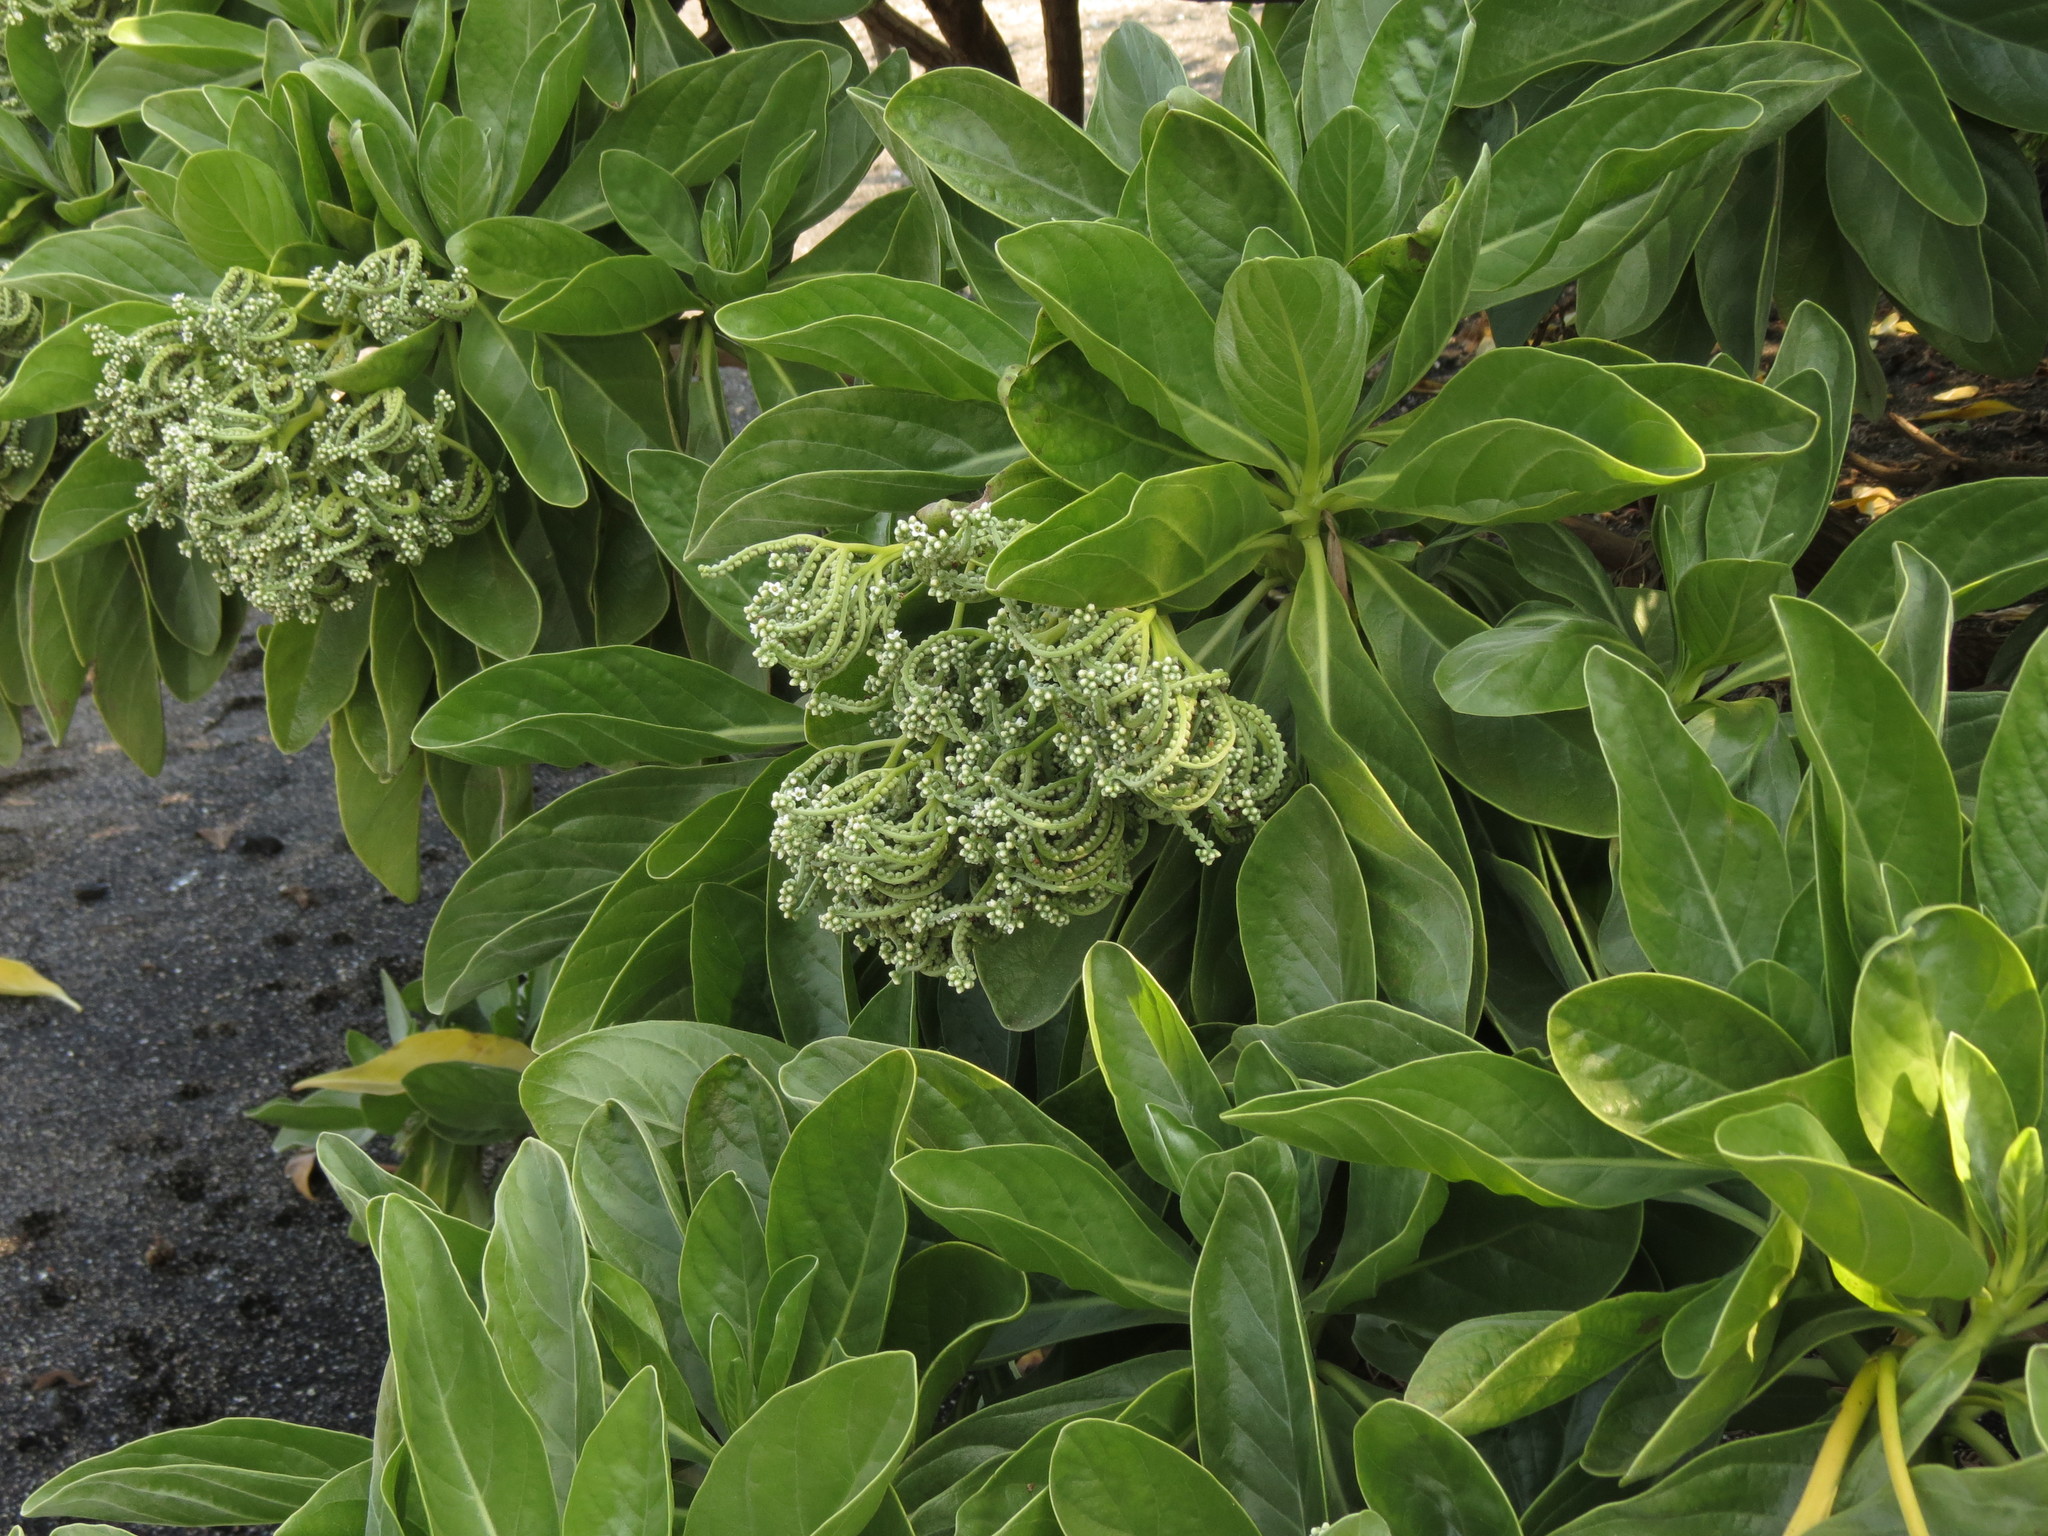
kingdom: Plantae
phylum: Tracheophyta
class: Magnoliopsida
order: Boraginales
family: Heliotropiaceae
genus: Heliotropium
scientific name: Heliotropium velutinum
